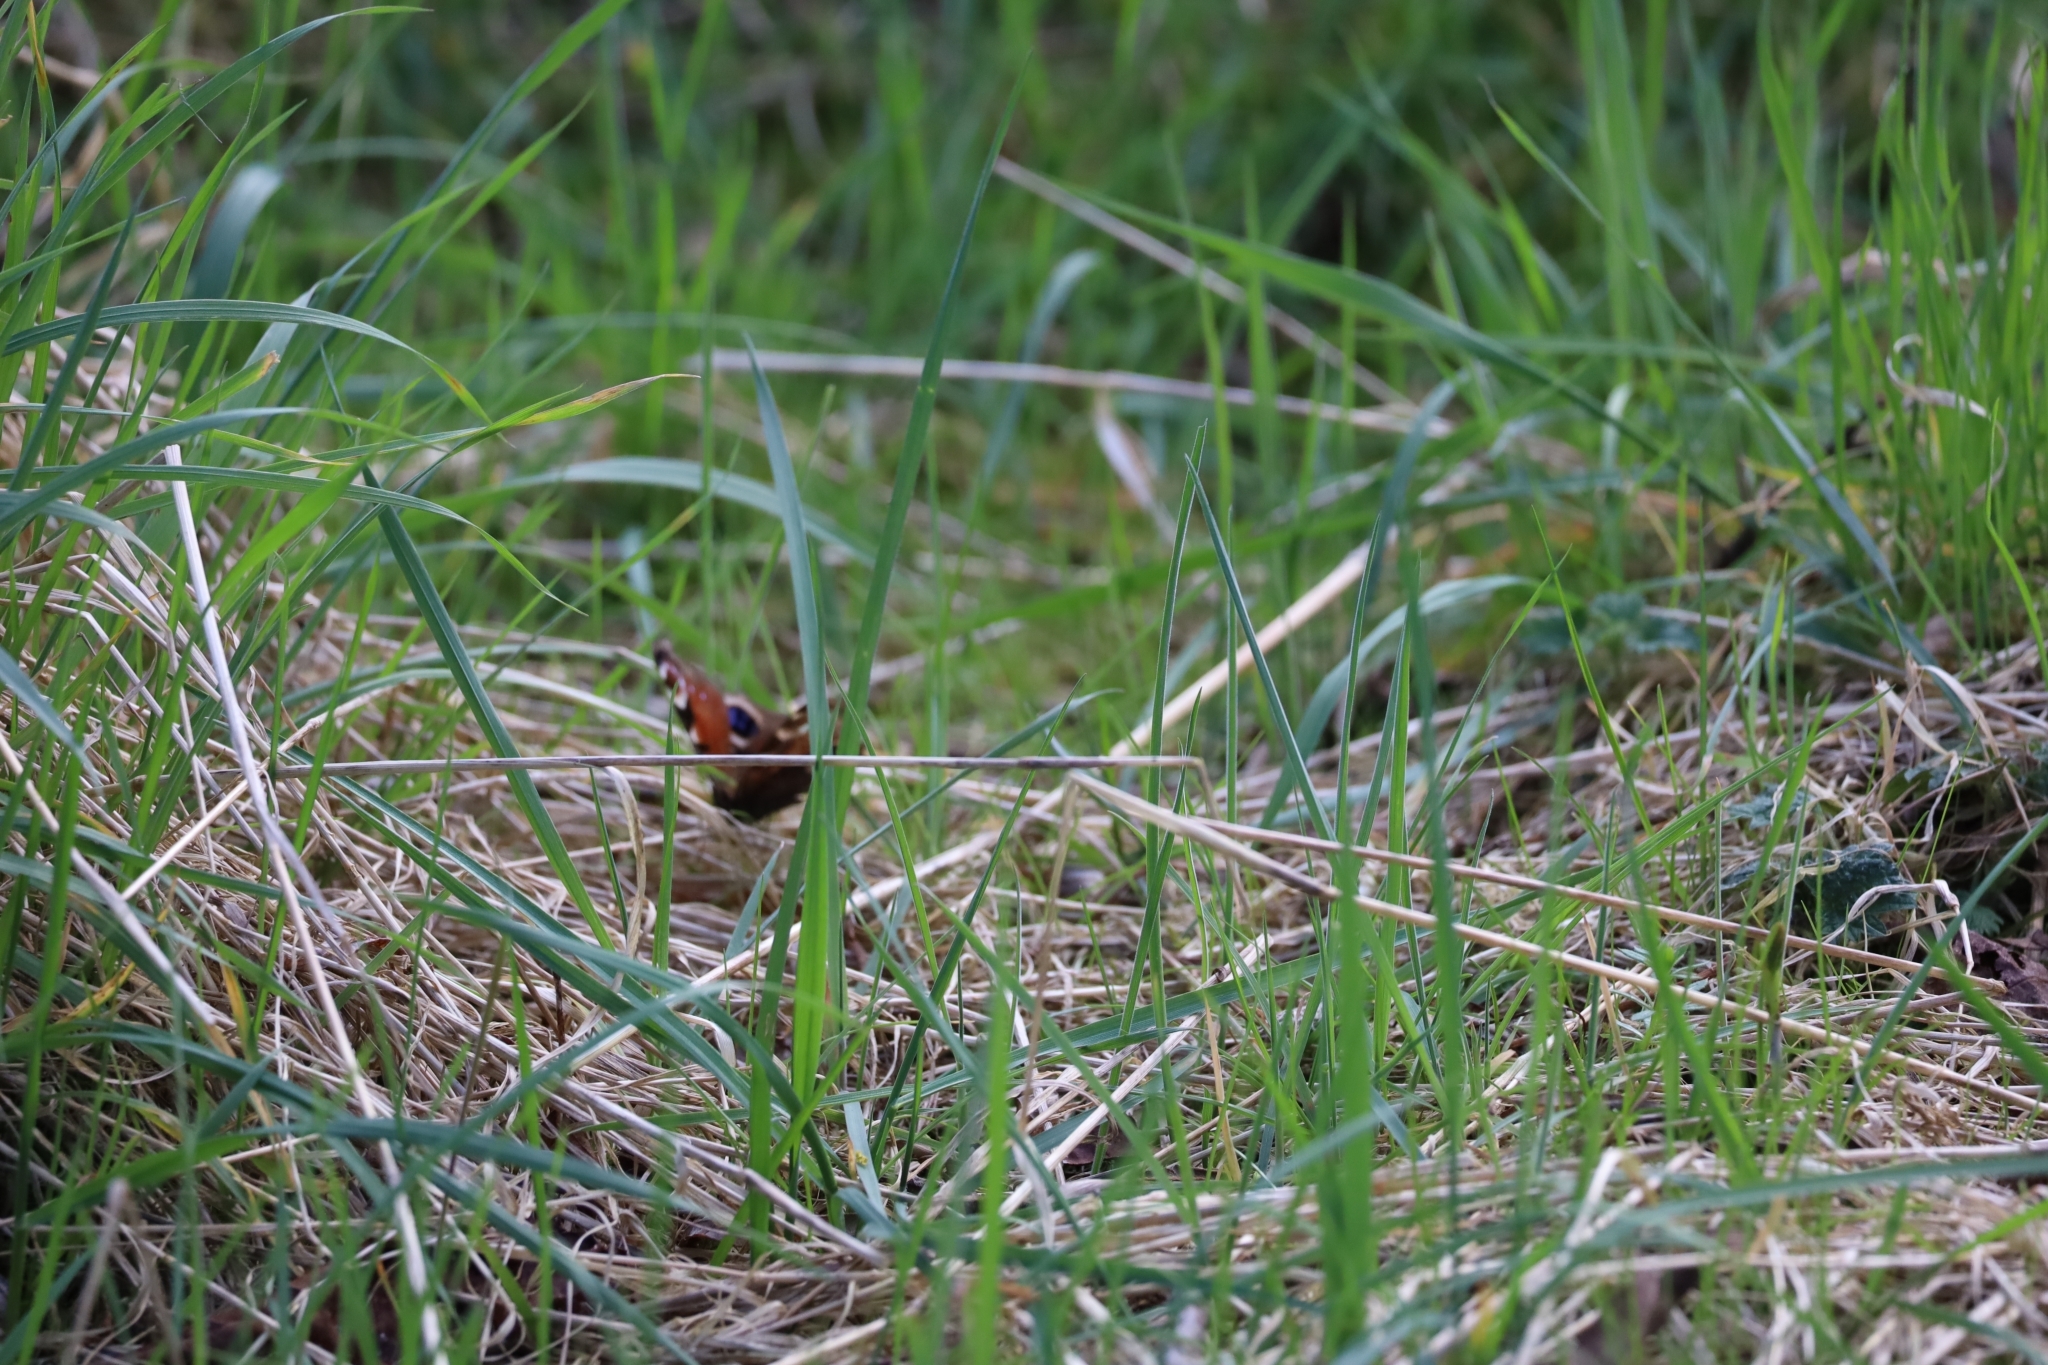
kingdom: Animalia
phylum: Arthropoda
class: Insecta
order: Lepidoptera
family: Nymphalidae
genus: Aglais
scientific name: Aglais io
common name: Peacock
